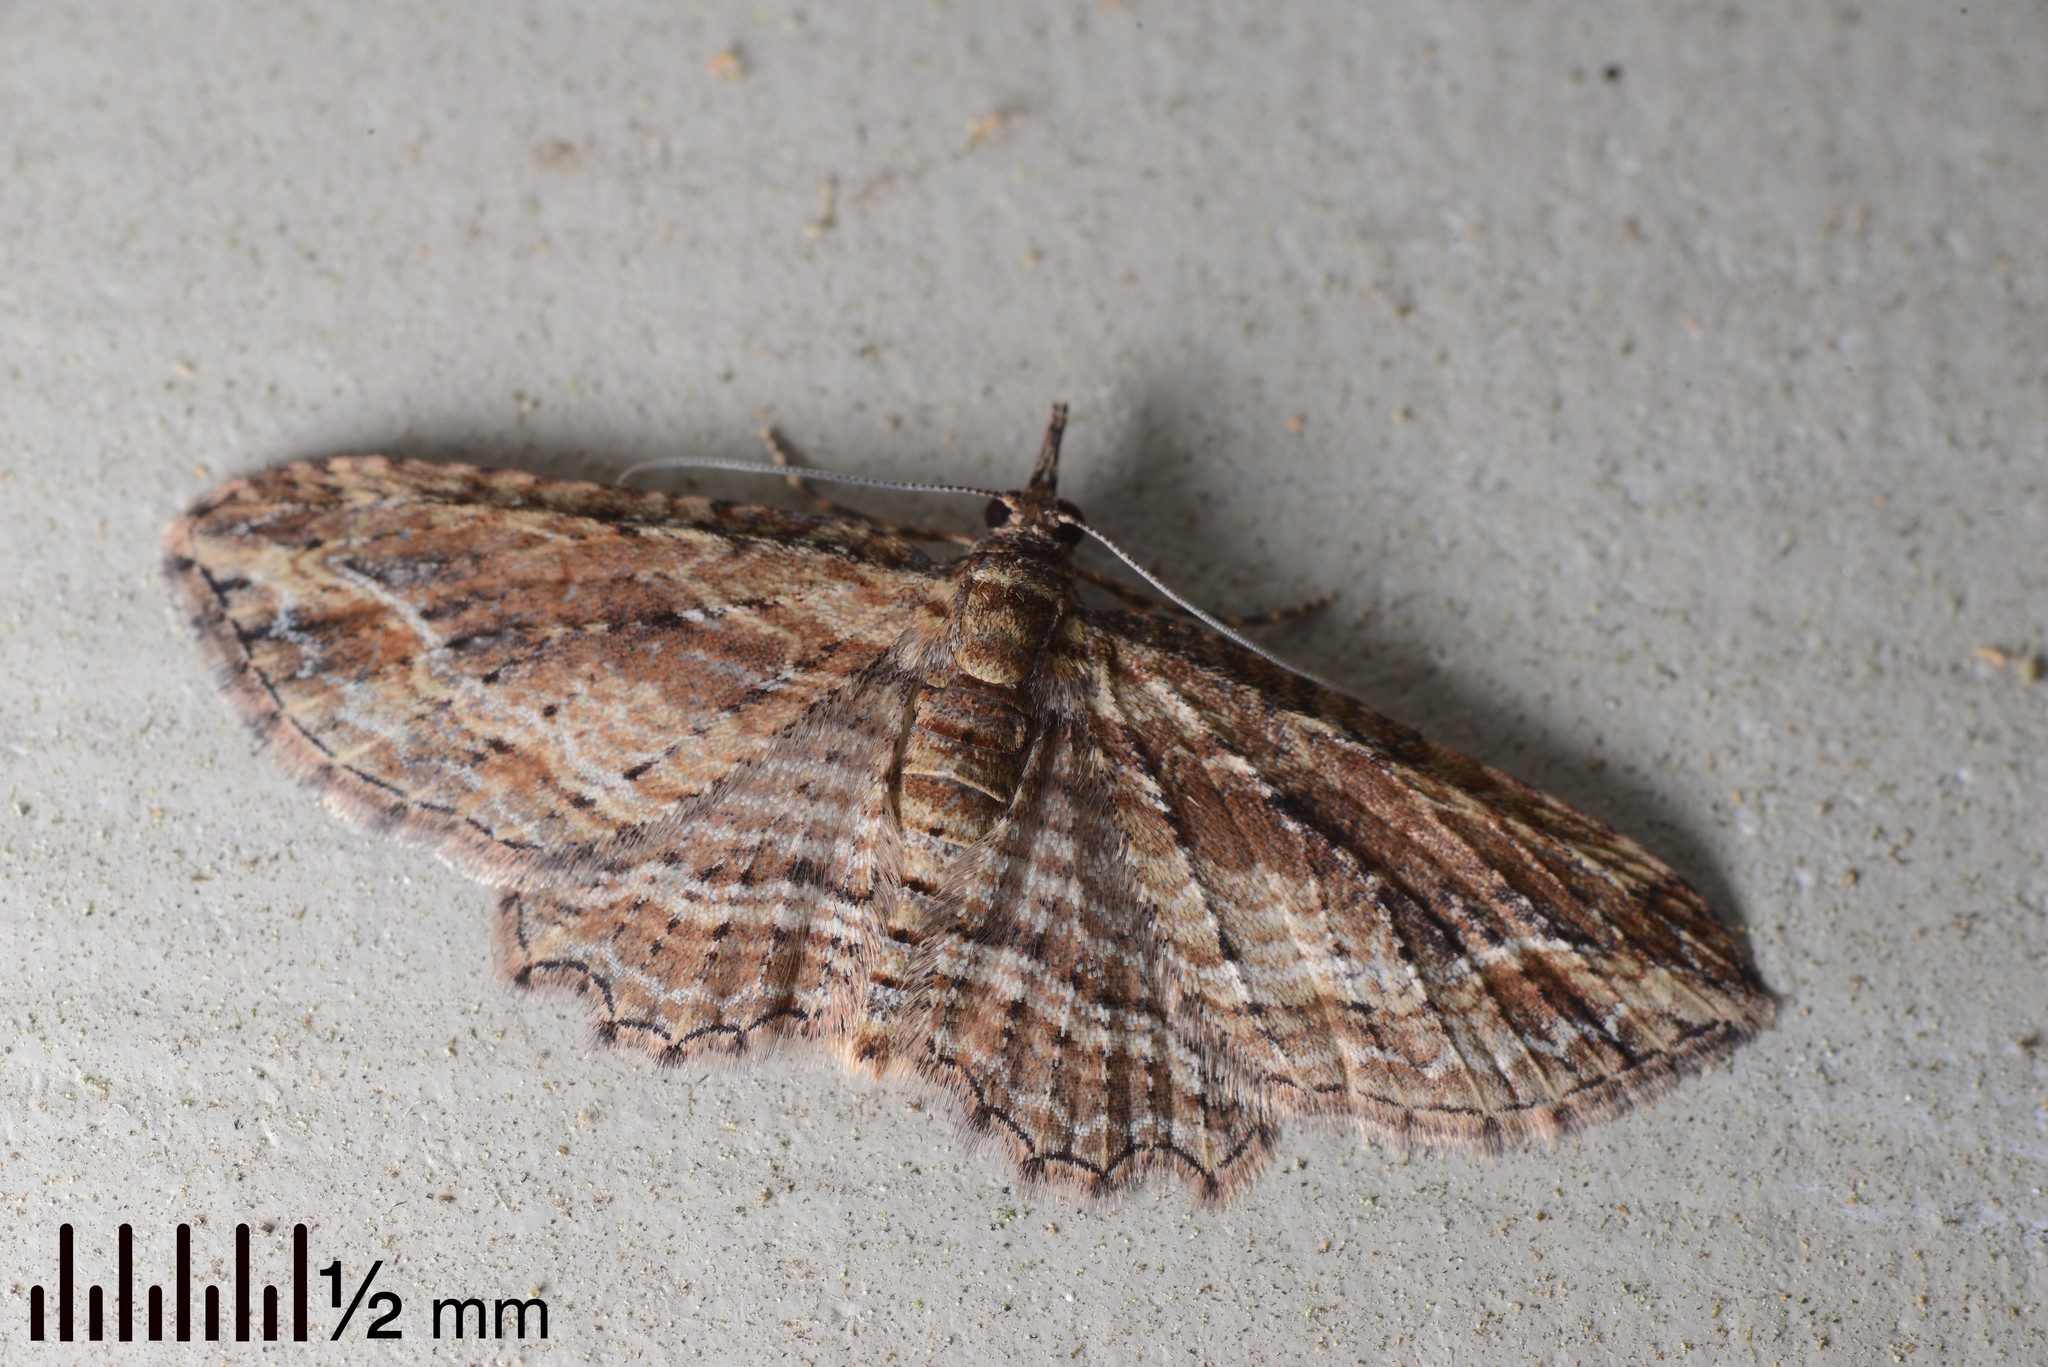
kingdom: Animalia
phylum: Arthropoda
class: Insecta
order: Lepidoptera
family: Geometridae
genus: Chloroclystis
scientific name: Chloroclystis filata
